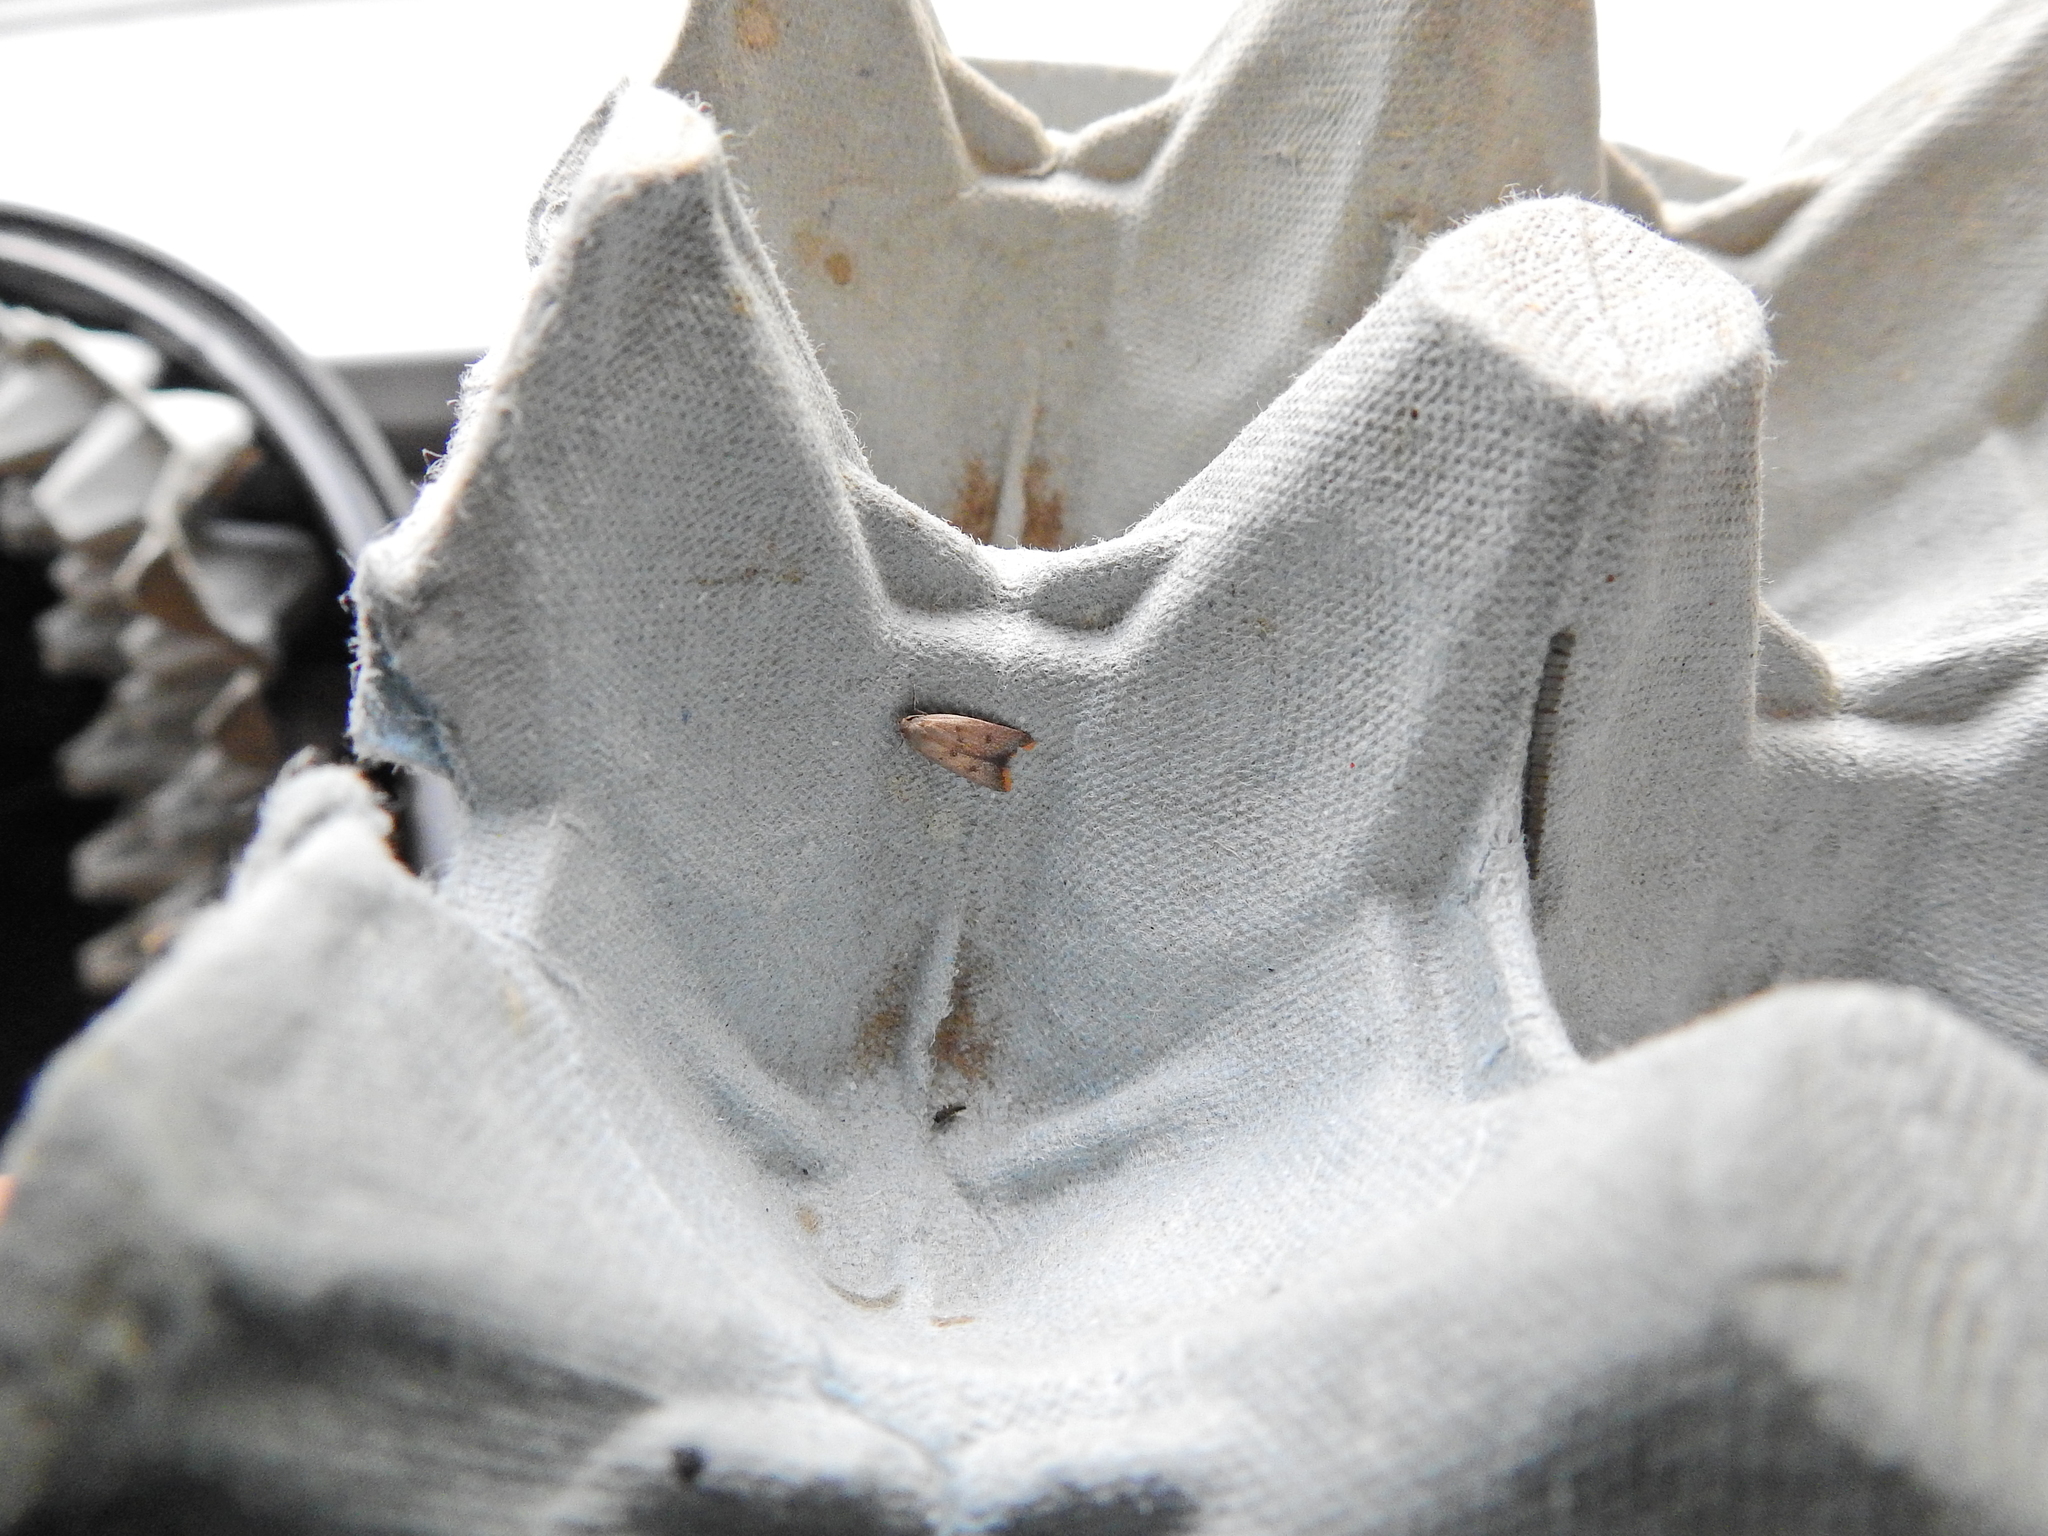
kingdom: Animalia
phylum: Arthropoda
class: Insecta
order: Lepidoptera
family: Oecophoridae
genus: Tachystola
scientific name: Tachystola acroxantha
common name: Ruddy streak
